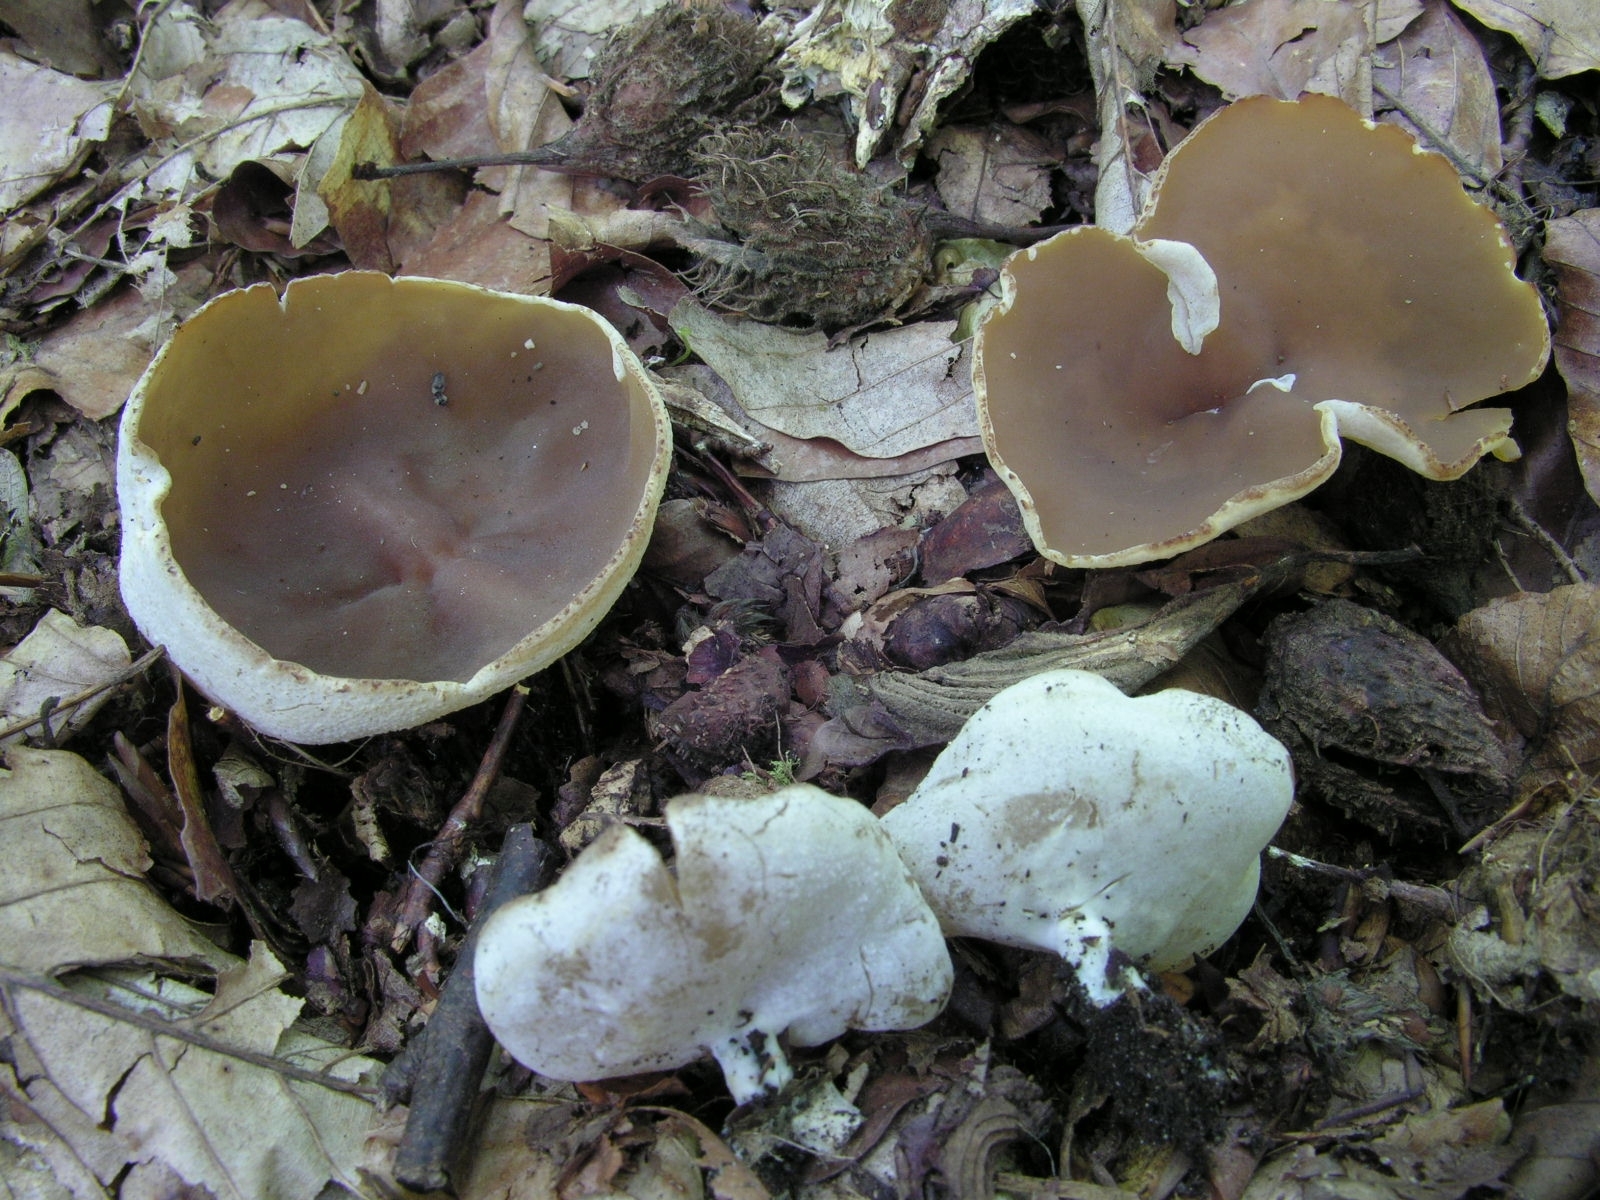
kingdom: Fungi
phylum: Ascomycota
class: Pezizomycetes
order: Pezizales
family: Pezizaceae
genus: Peziza
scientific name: Peziza varia
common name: Layered cup
